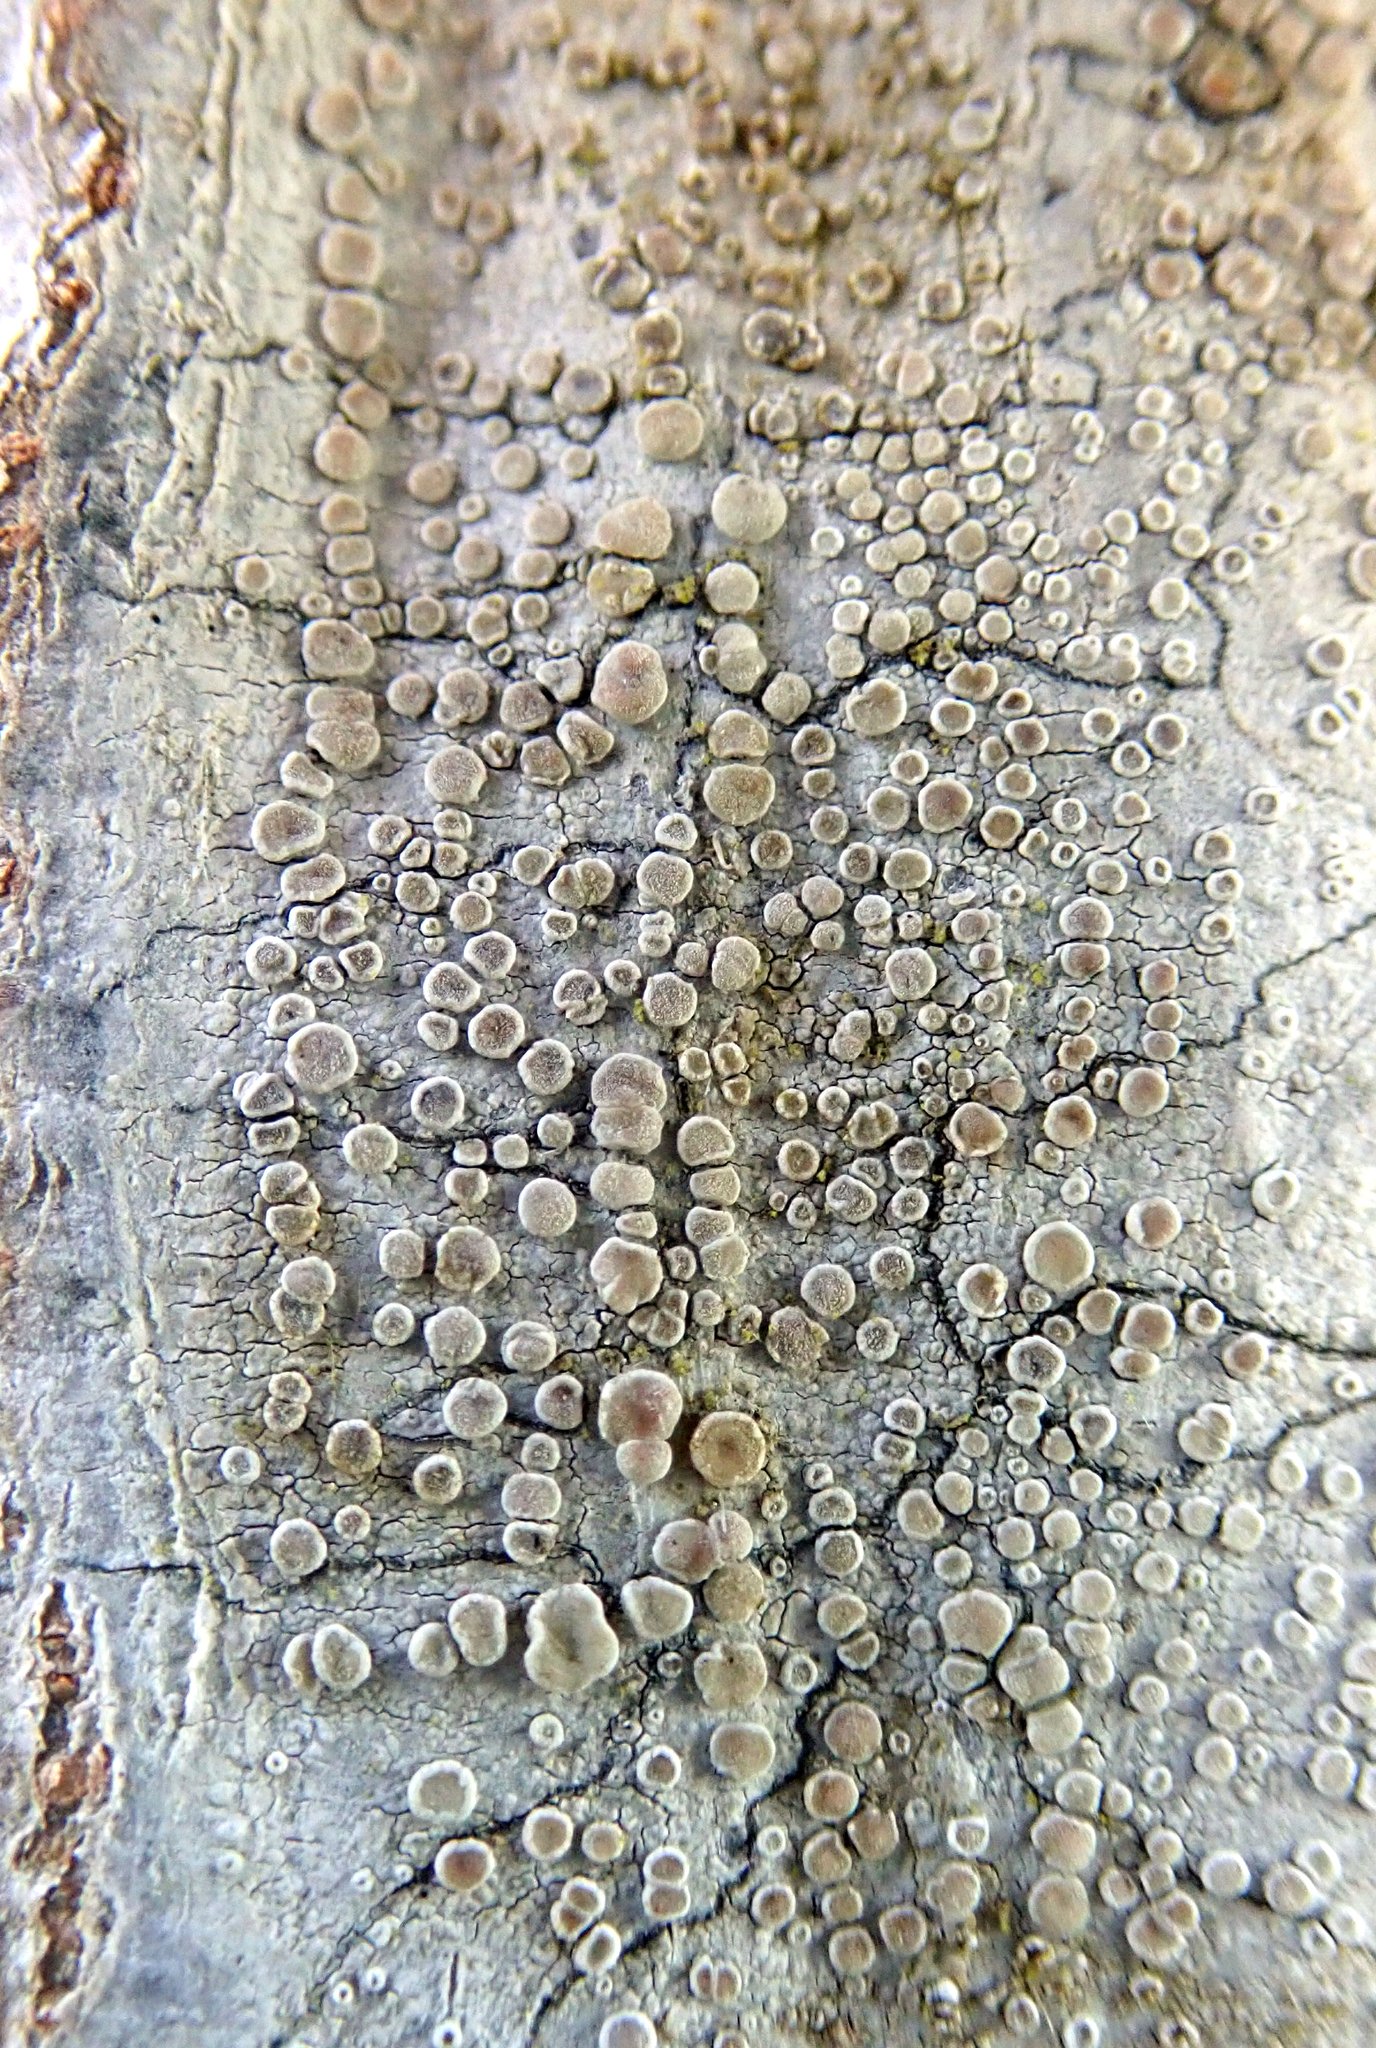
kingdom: Fungi
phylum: Ascomycota
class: Lecanoromycetes
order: Lecanorales
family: Lecanoraceae
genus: Glaucomaria
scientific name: Glaucomaria carpinea
